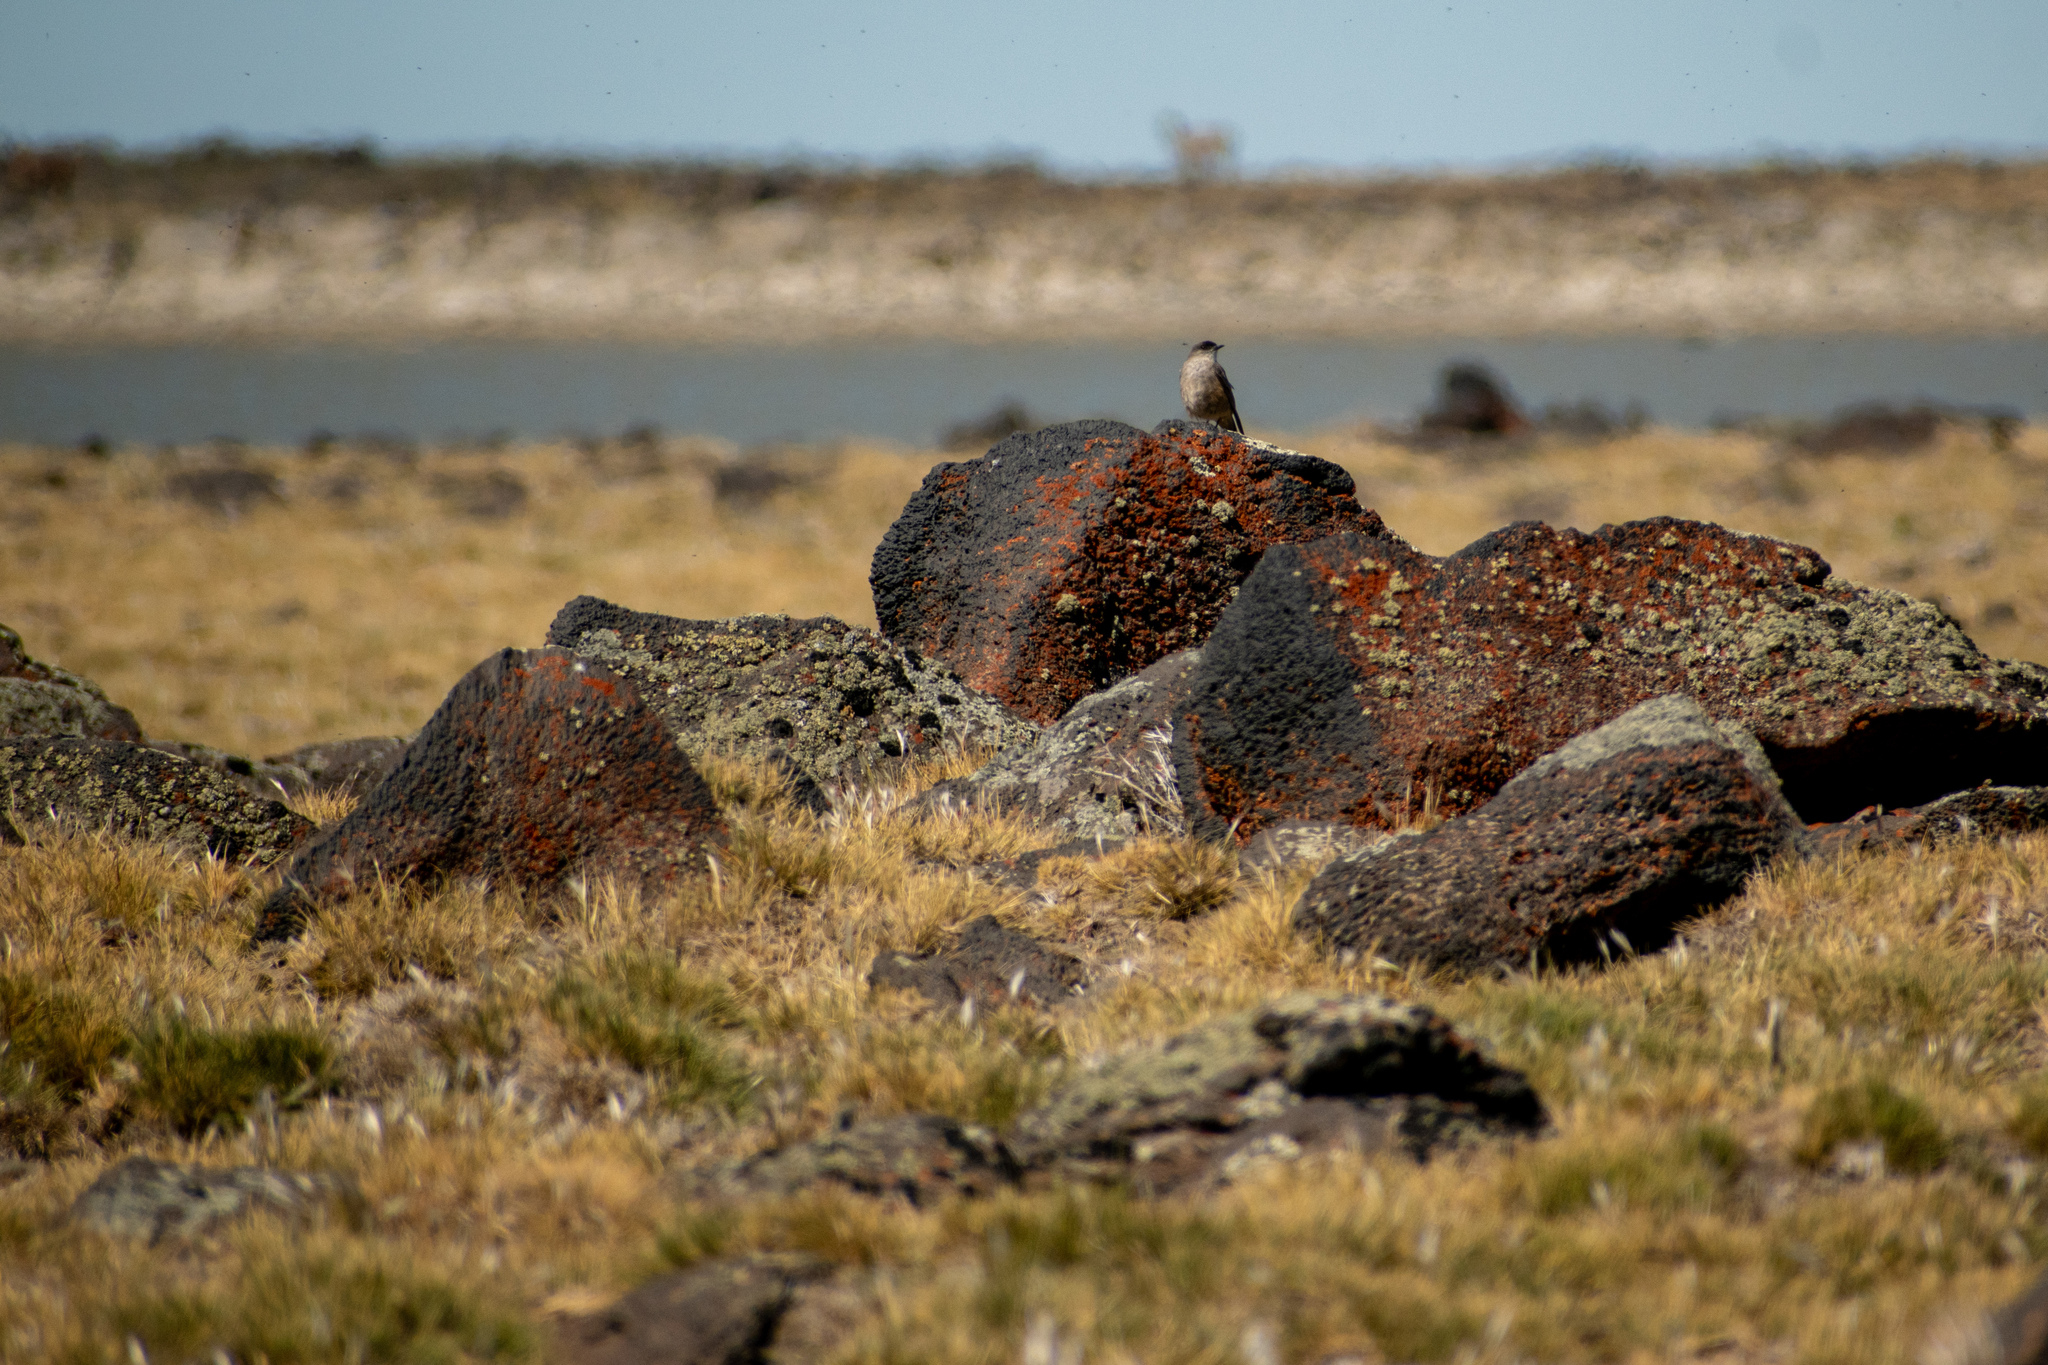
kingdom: Animalia
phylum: Chordata
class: Aves
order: Passeriformes
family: Tyrannidae
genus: Muscisaxicola
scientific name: Muscisaxicola capistratus
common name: Cinnamon-bellied ground tyrant
